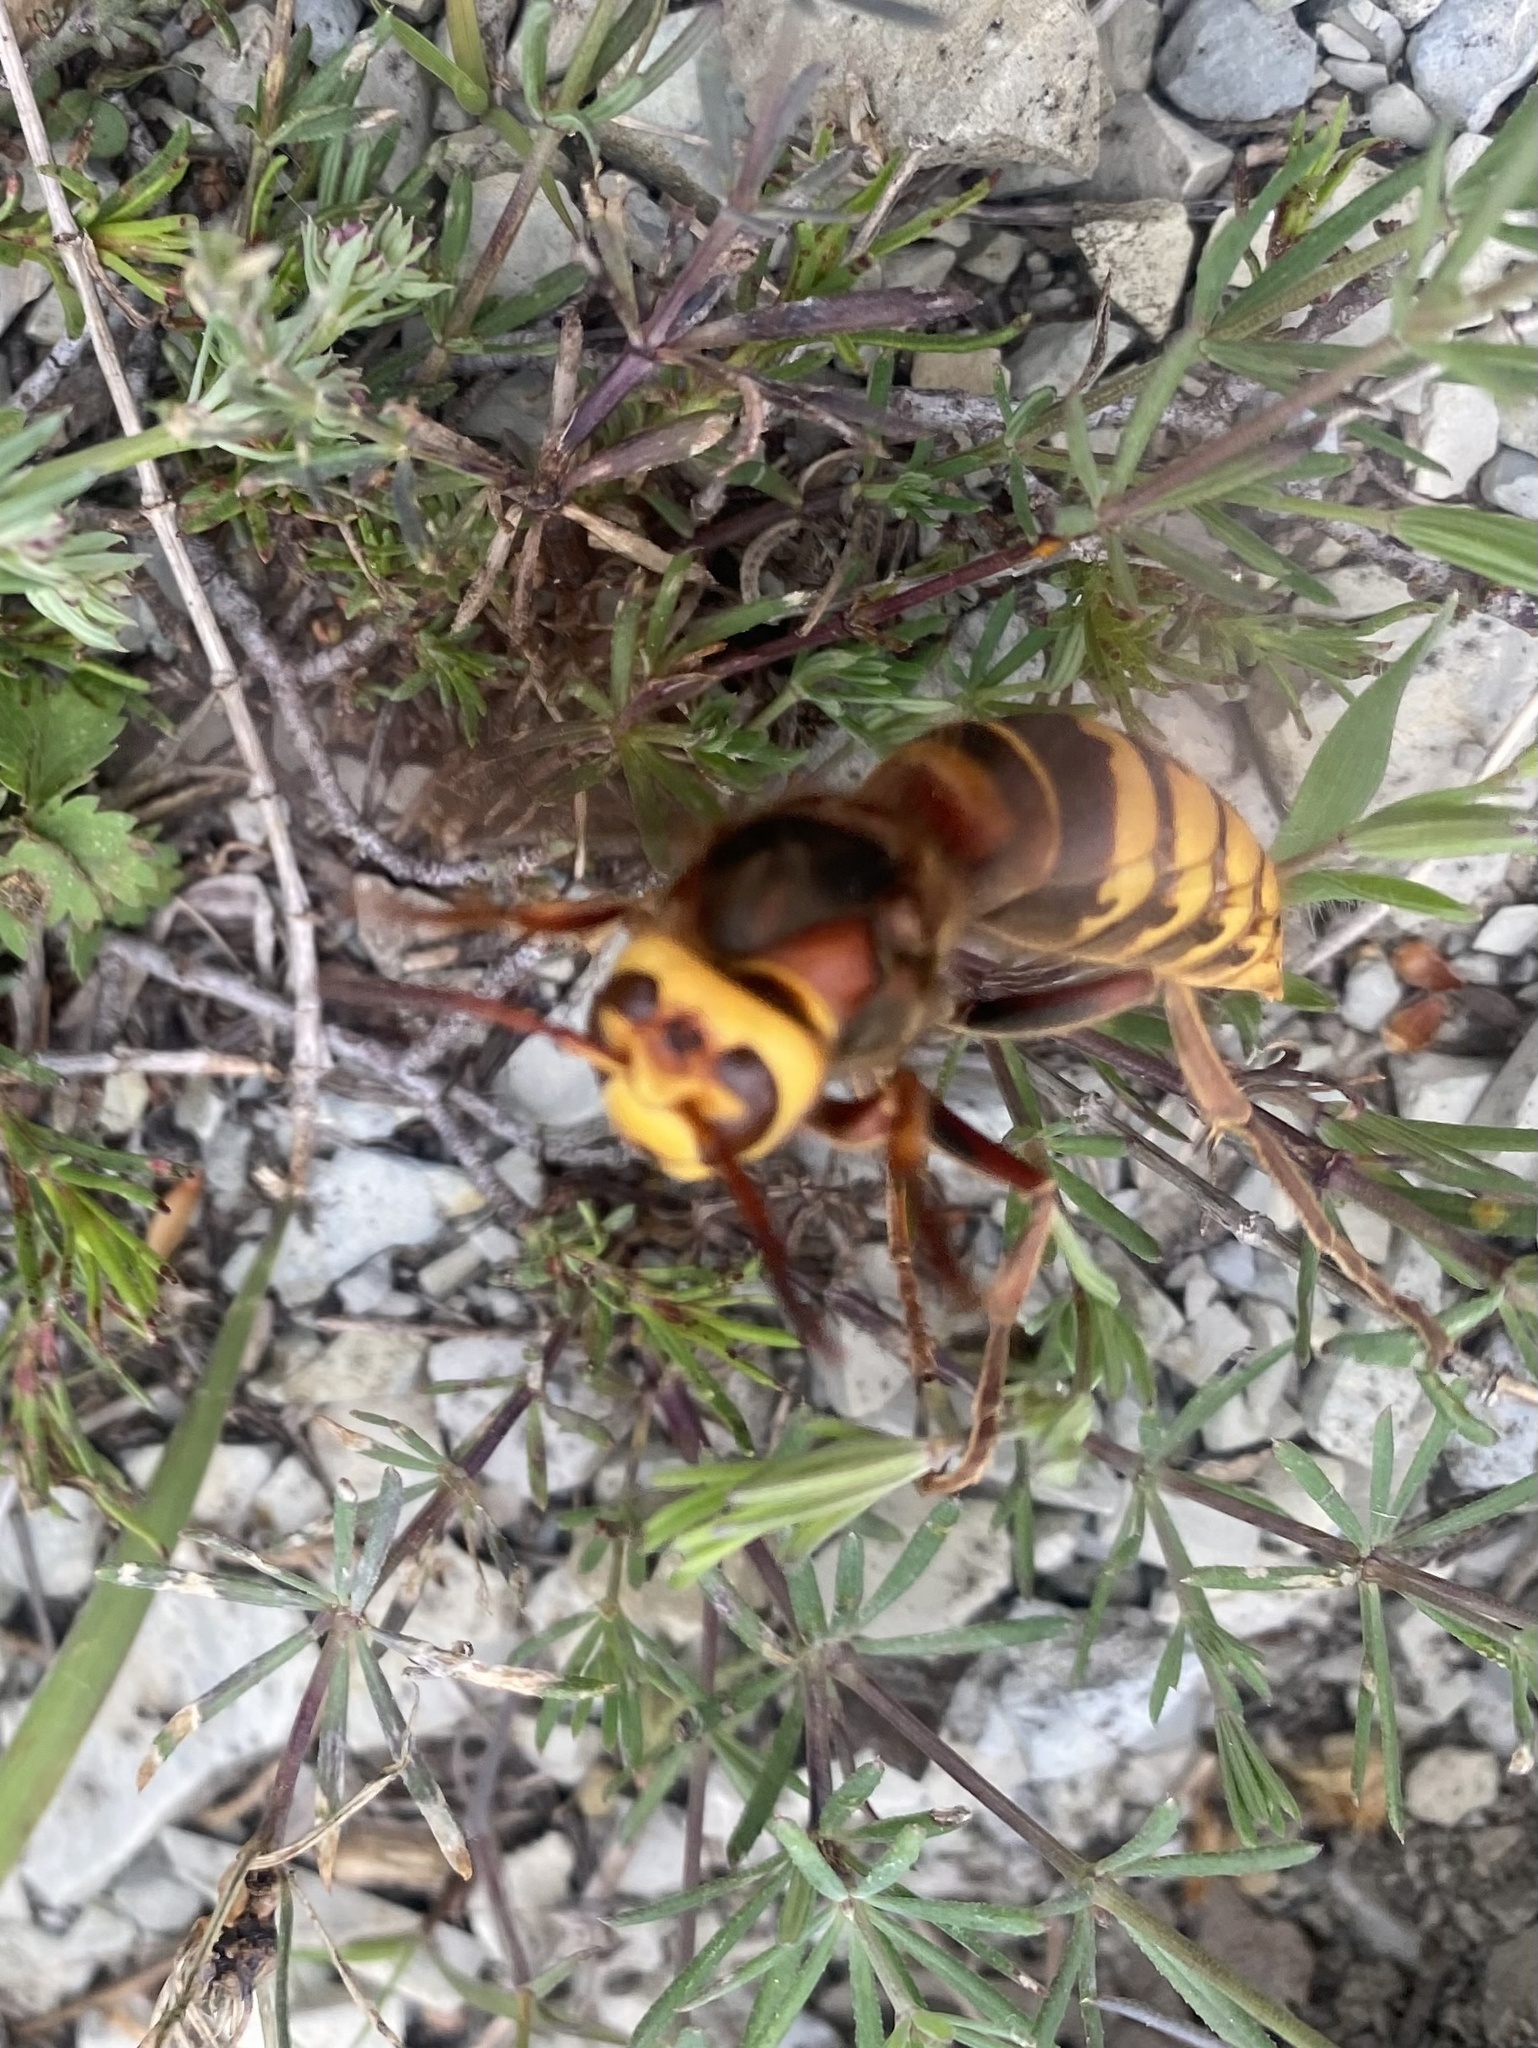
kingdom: Animalia
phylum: Arthropoda
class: Insecta
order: Hymenoptera
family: Vespidae
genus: Vespa
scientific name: Vespa crabro
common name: Hornet
